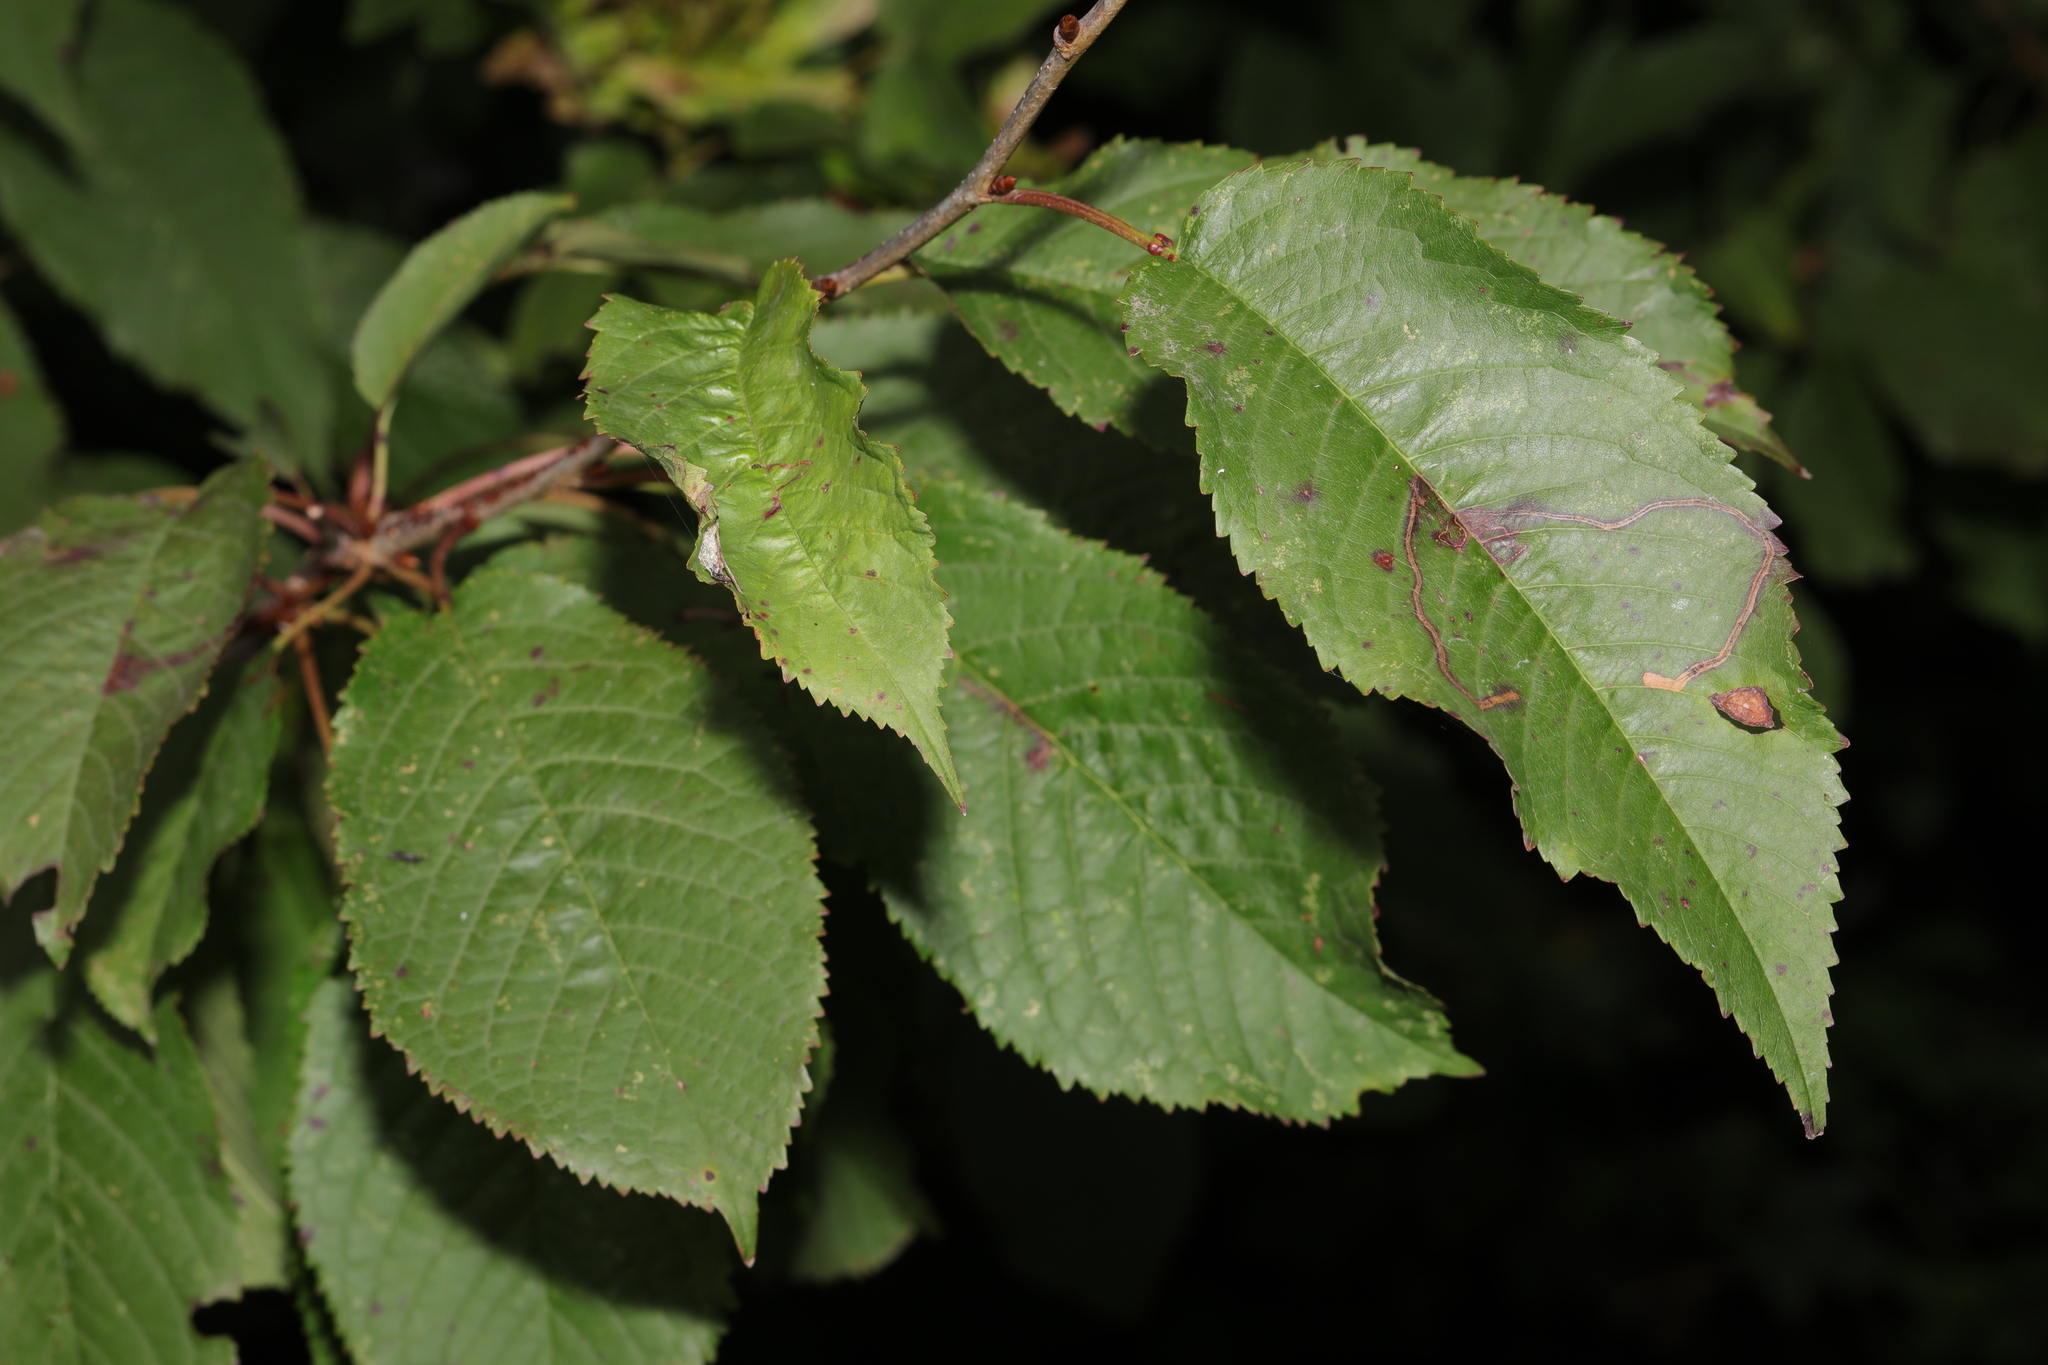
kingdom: Plantae
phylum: Tracheophyta
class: Magnoliopsida
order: Rosales
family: Rosaceae
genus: Prunus
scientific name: Prunus avium
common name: Sweet cherry
